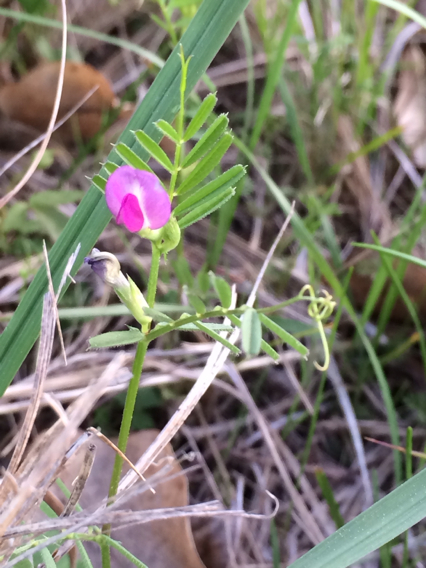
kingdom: Plantae
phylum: Tracheophyta
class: Magnoliopsida
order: Fabales
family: Fabaceae
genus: Vicia
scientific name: Vicia sativa
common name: Garden vetch
